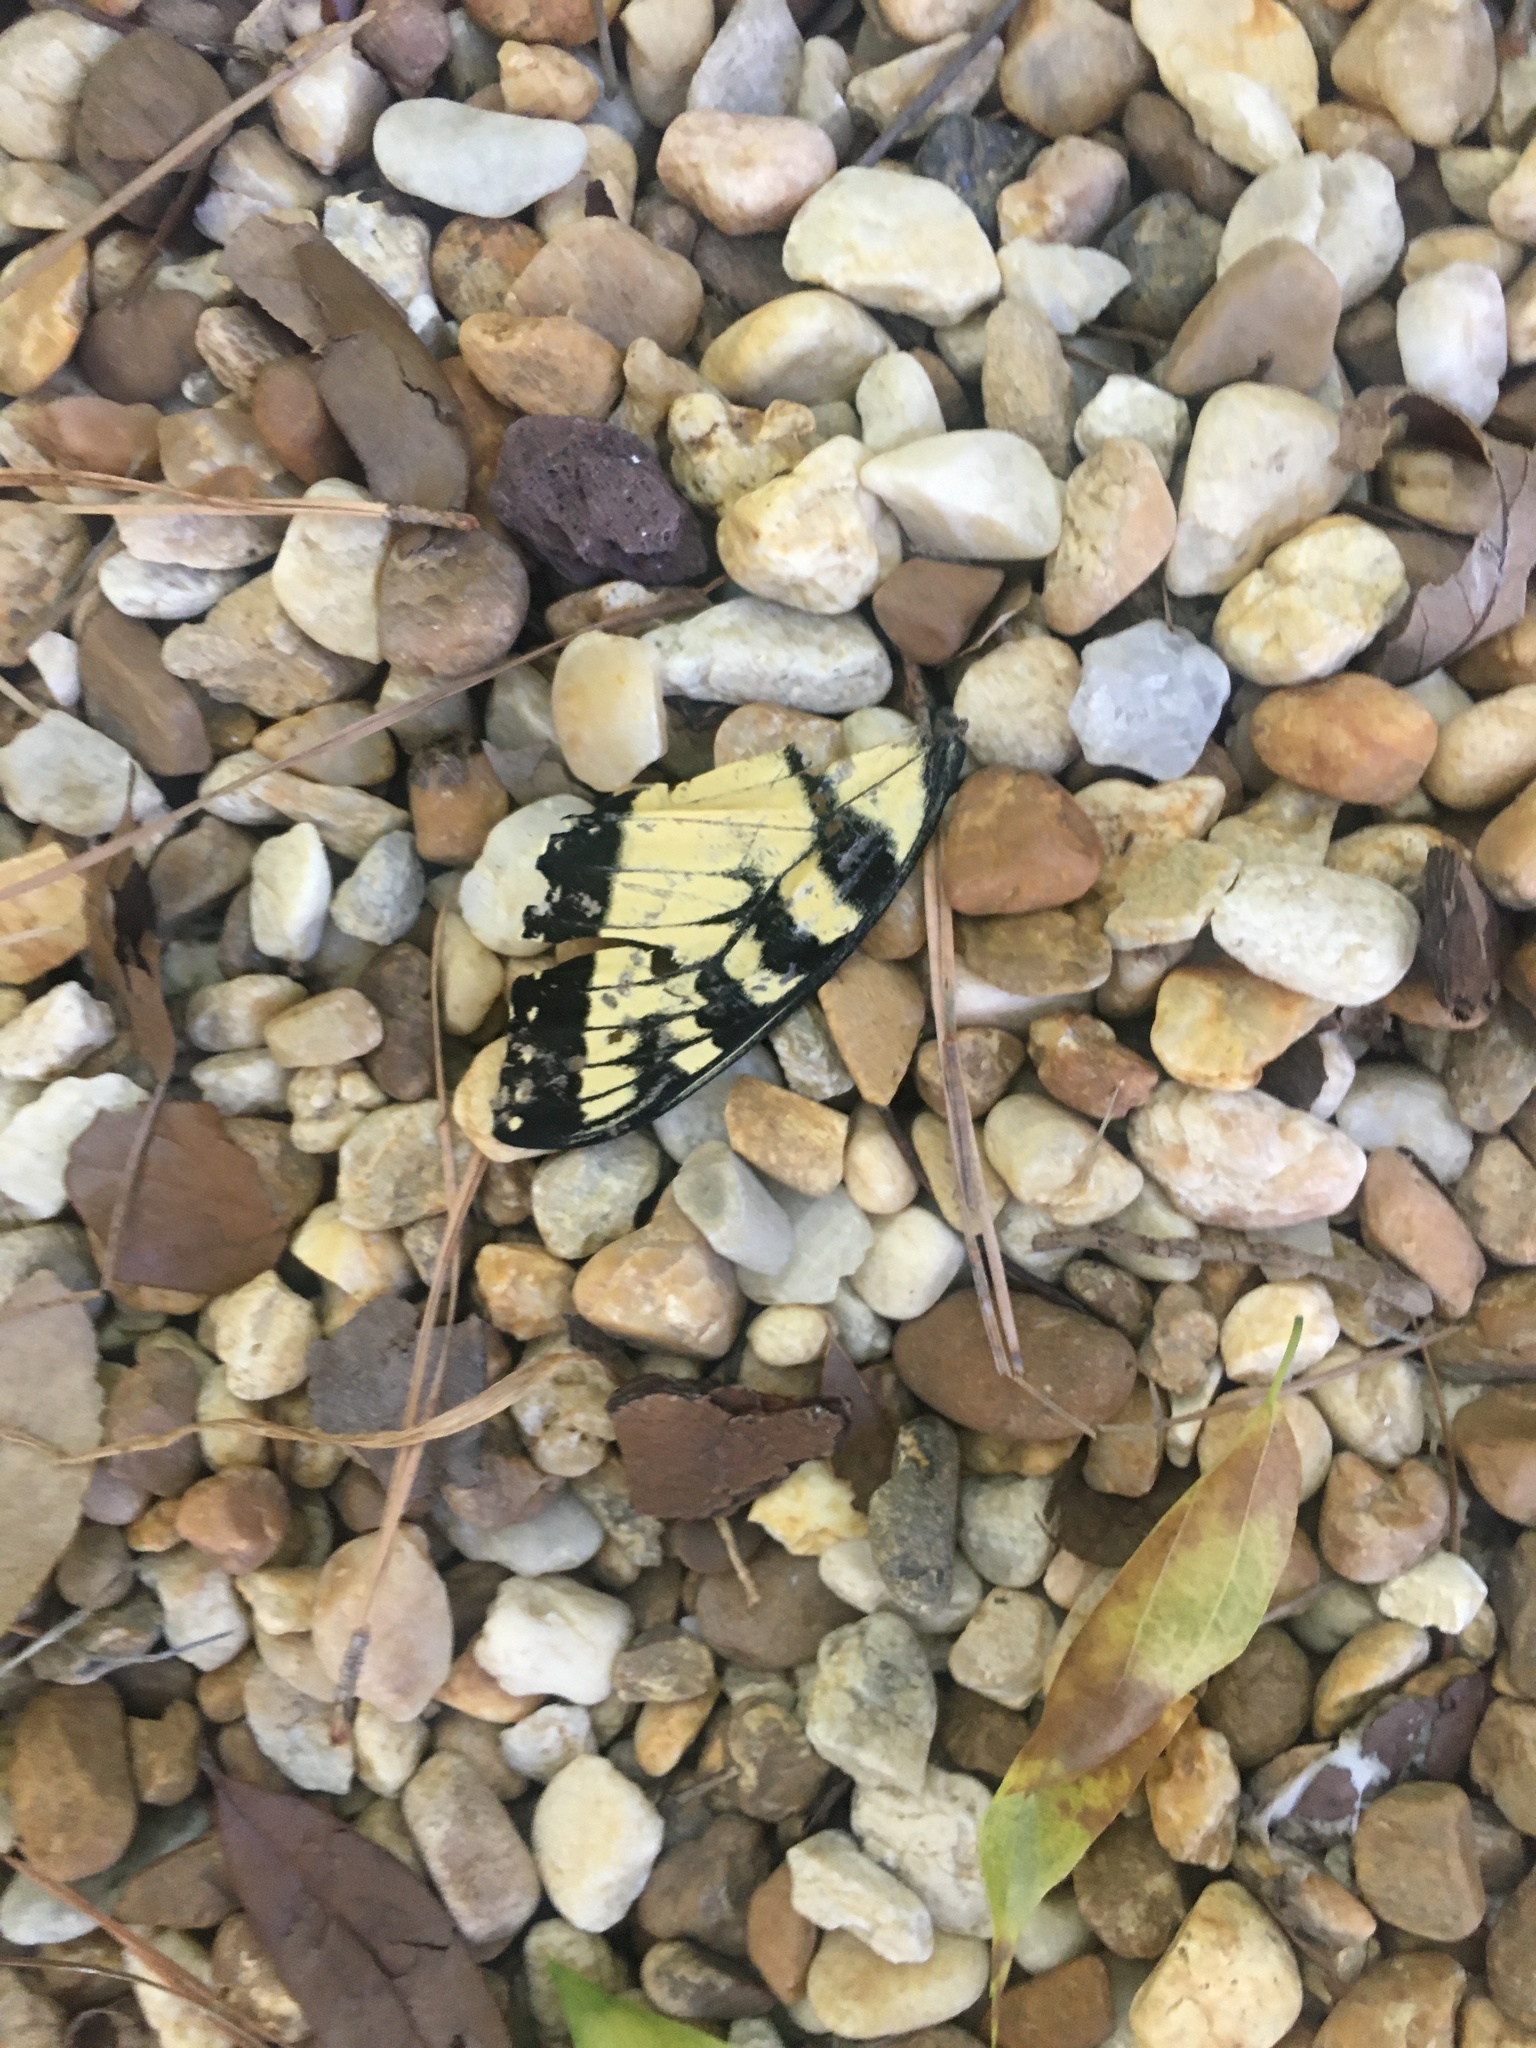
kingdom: Animalia
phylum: Arthropoda
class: Insecta
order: Lepidoptera
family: Papilionidae
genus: Papilio
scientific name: Papilio glaucus
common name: Tiger swallowtail
